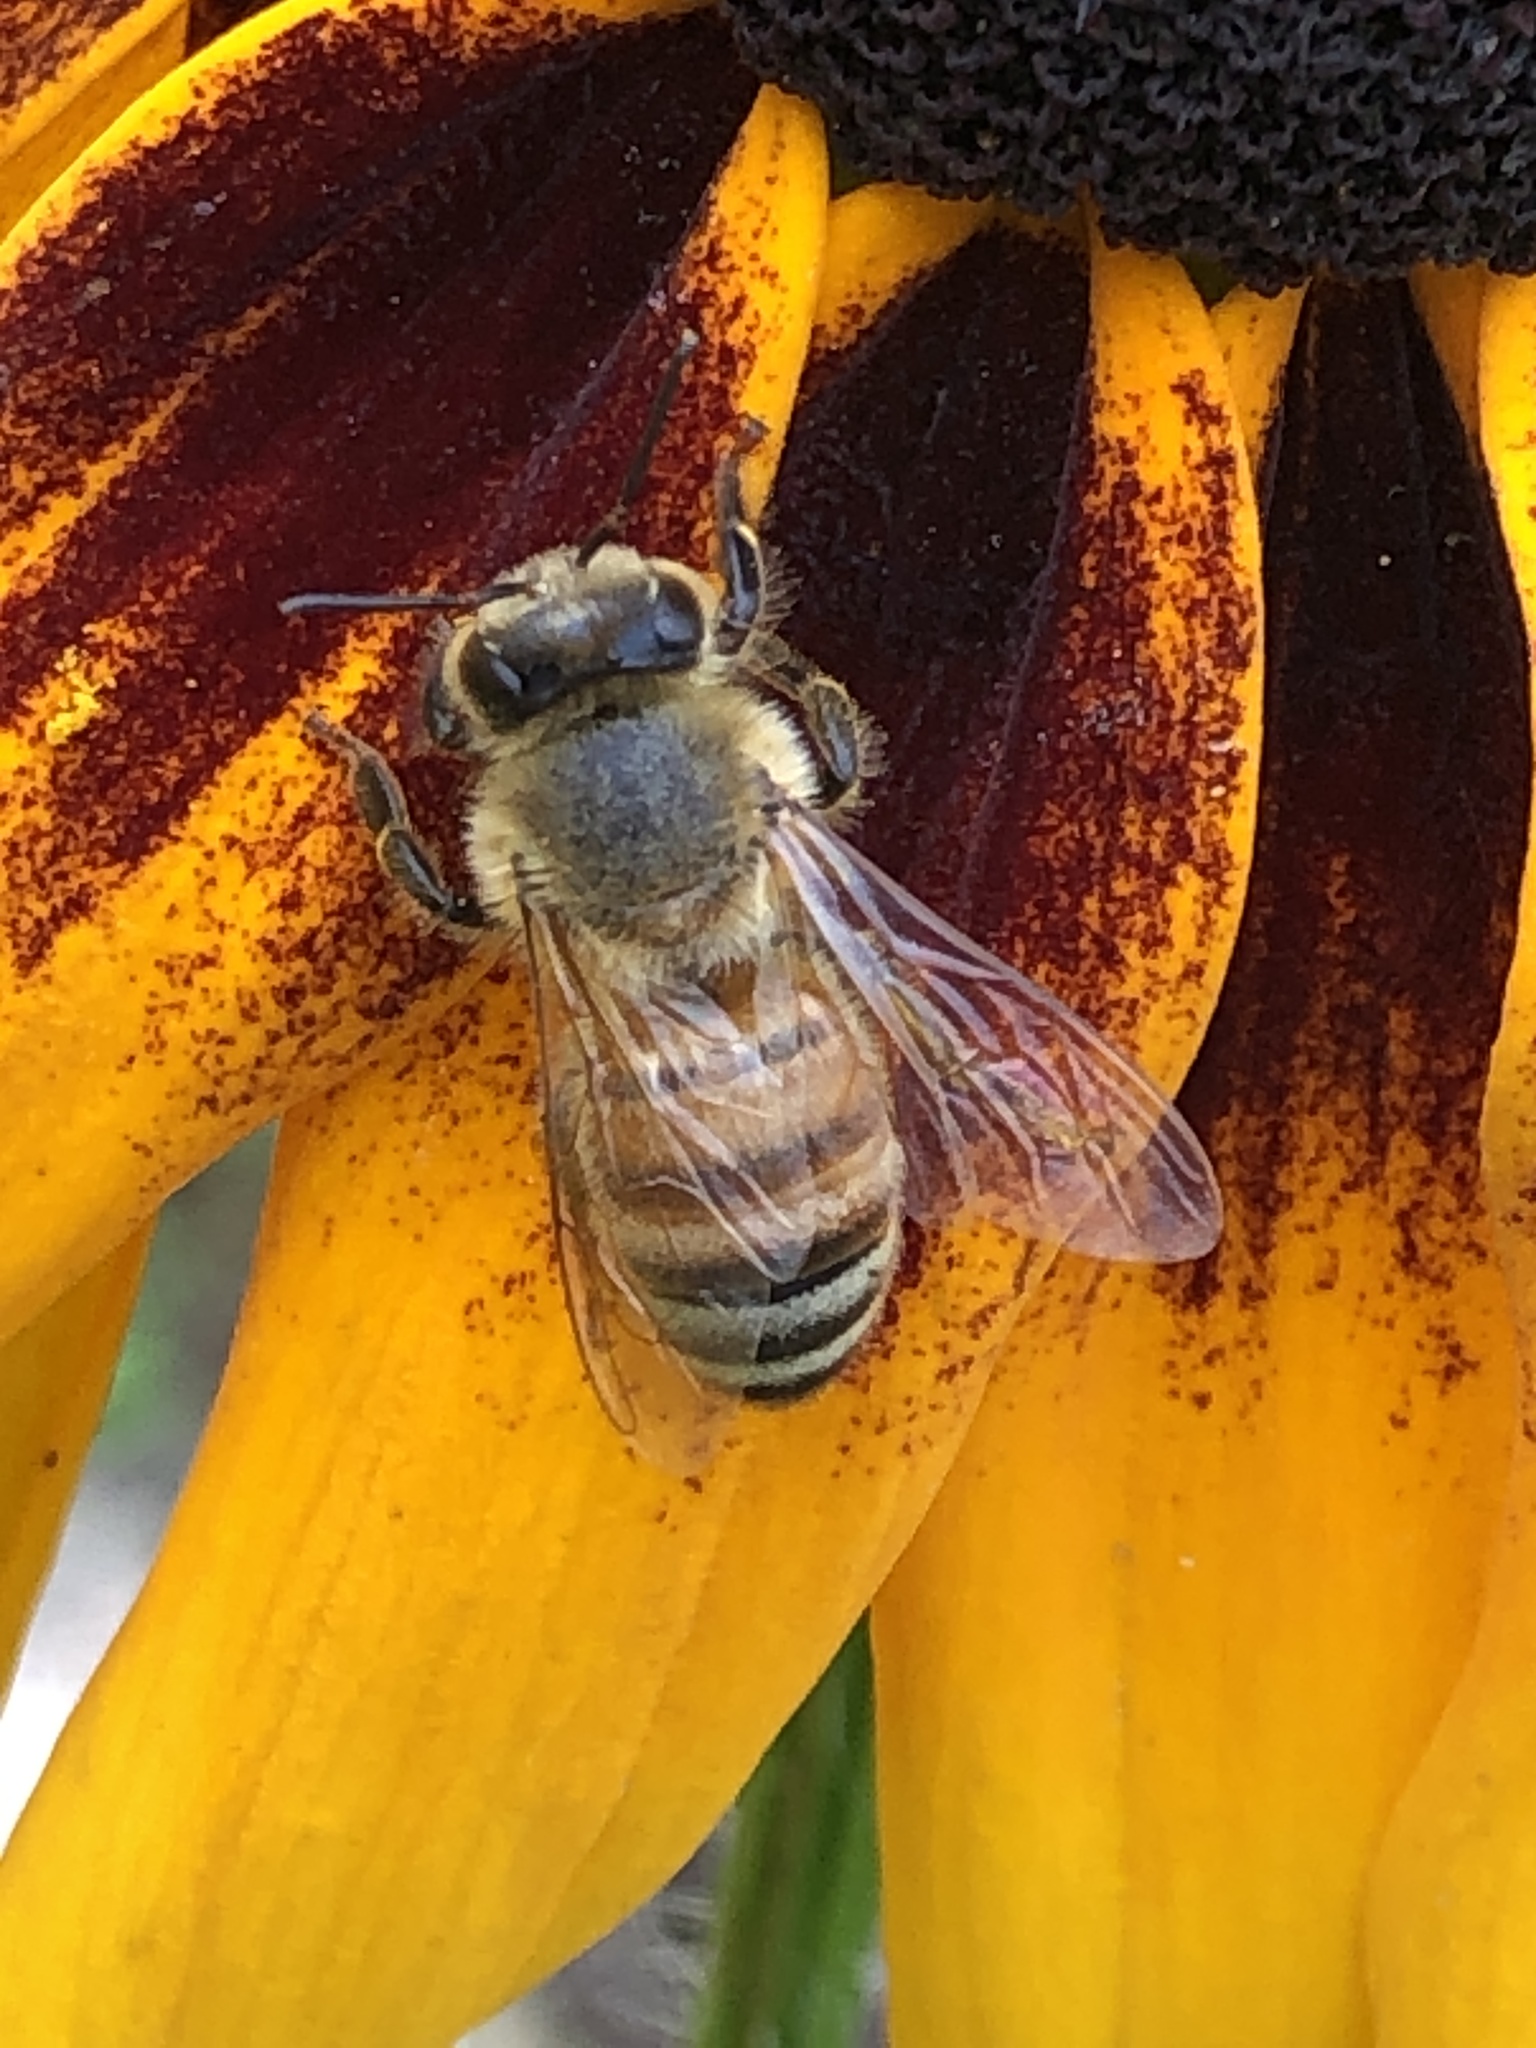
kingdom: Animalia
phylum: Arthropoda
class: Insecta
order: Hymenoptera
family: Apidae
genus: Apis
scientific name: Apis mellifera
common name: Honey bee
